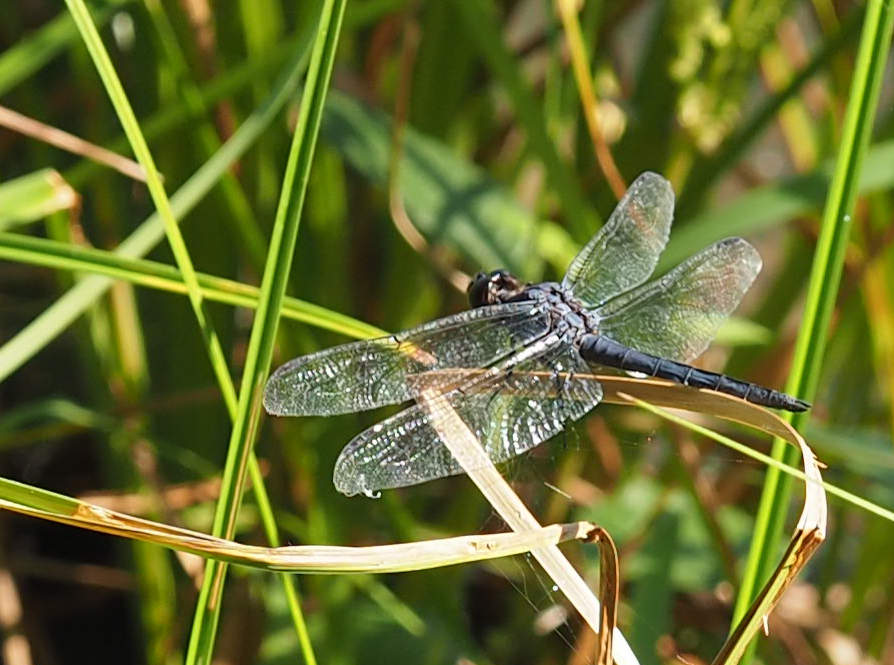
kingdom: Animalia
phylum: Arthropoda
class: Insecta
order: Odonata
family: Libellulidae
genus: Libellula
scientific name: Libellula incesta
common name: Slaty skimmer
